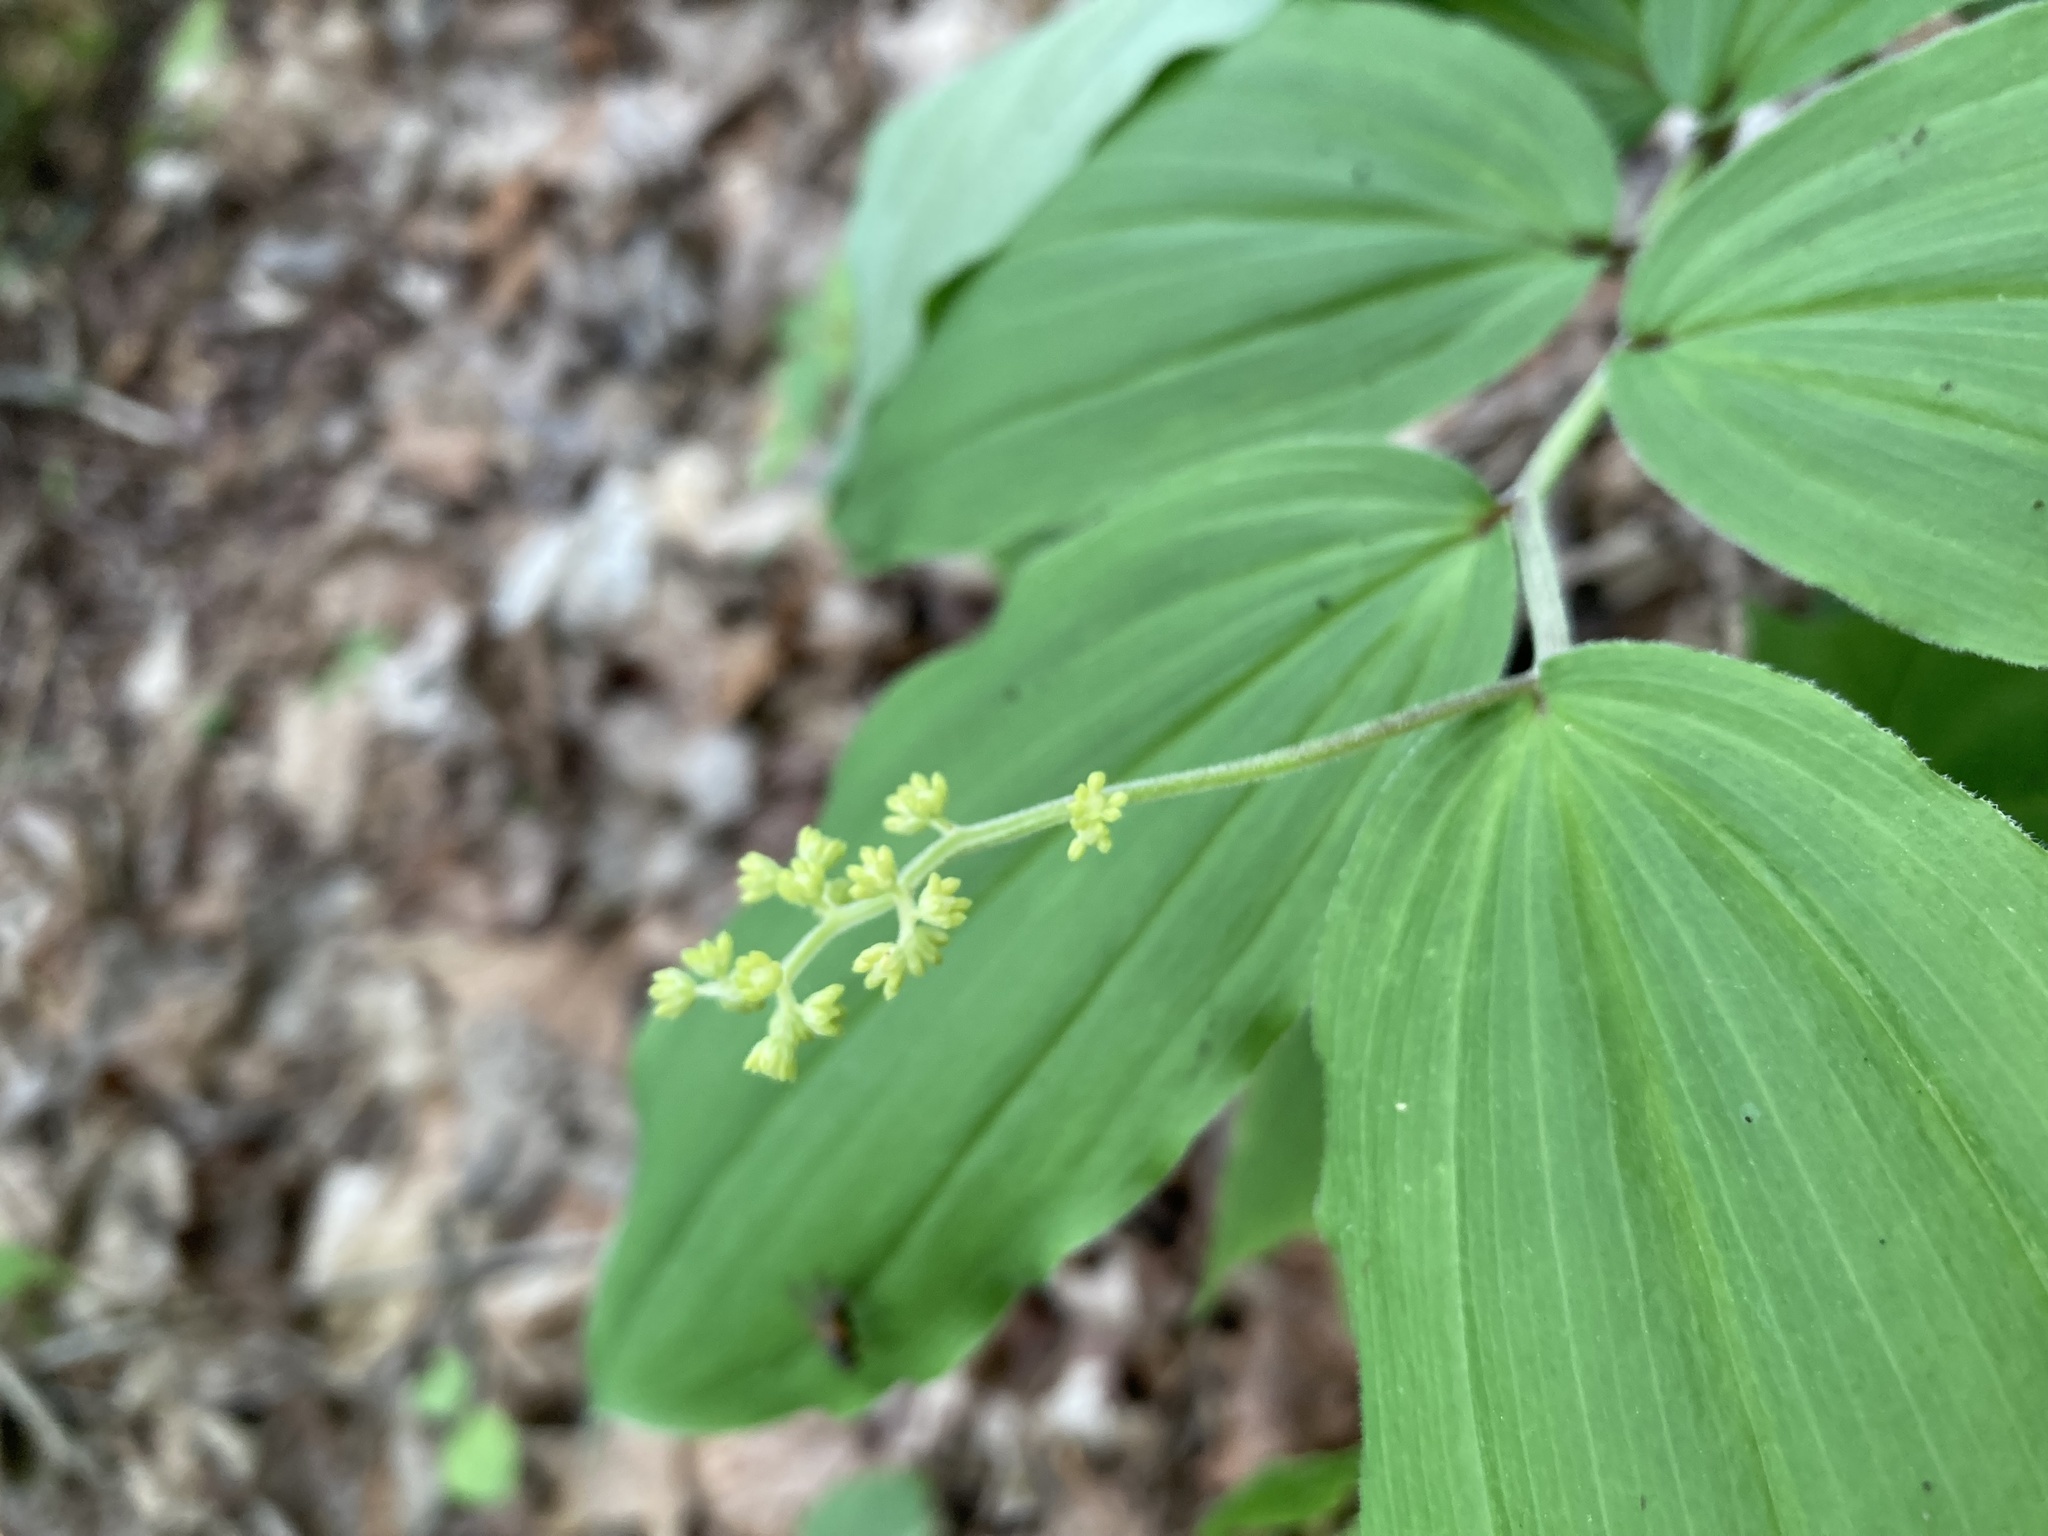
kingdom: Plantae
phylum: Tracheophyta
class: Liliopsida
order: Asparagales
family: Asparagaceae
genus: Maianthemum
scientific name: Maianthemum racemosum
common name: False spikenard
